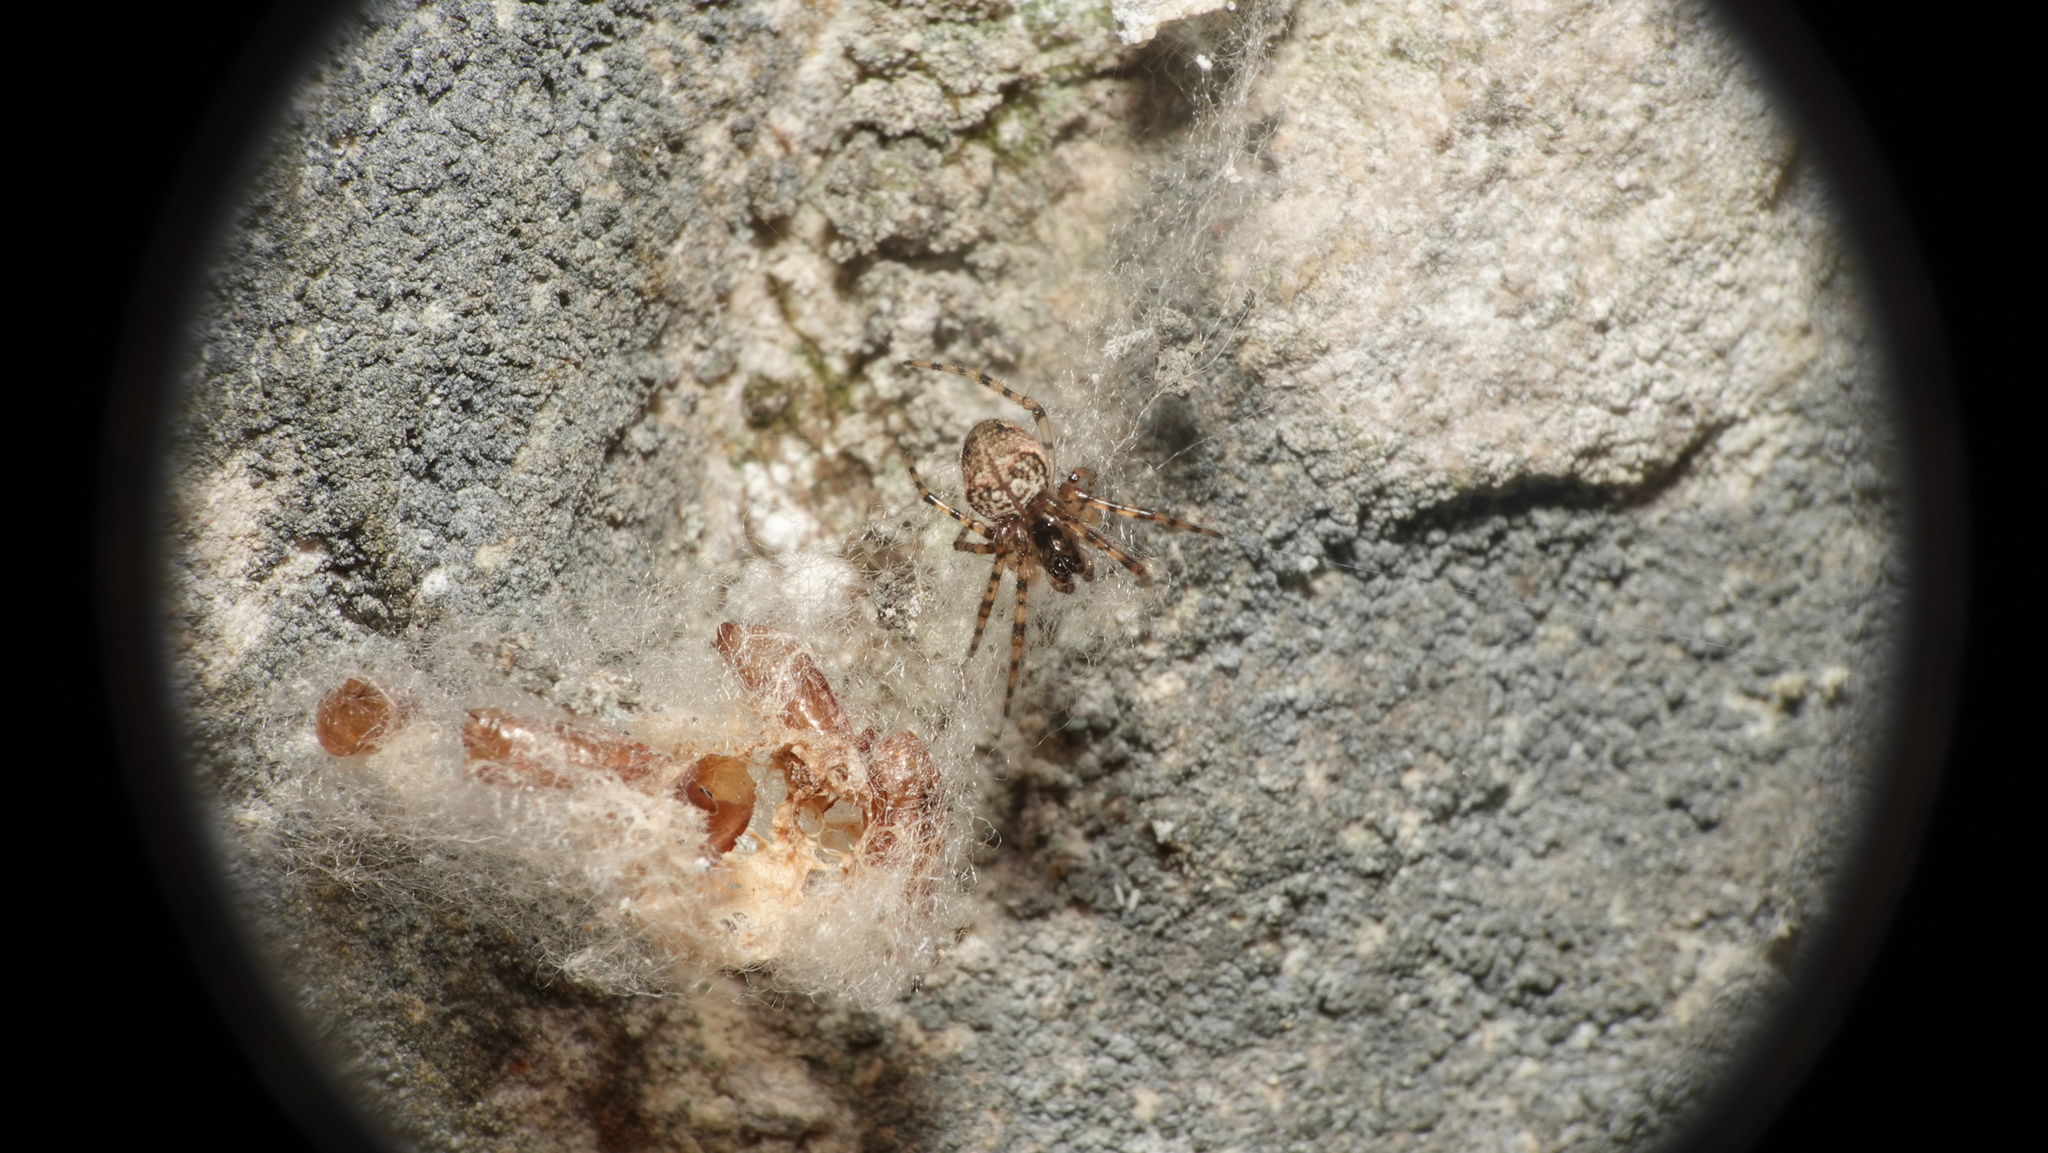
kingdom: Animalia
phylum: Arthropoda
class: Arachnida
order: Araneae
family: Tetragnathidae
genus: Metellina
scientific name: Metellina merianae
